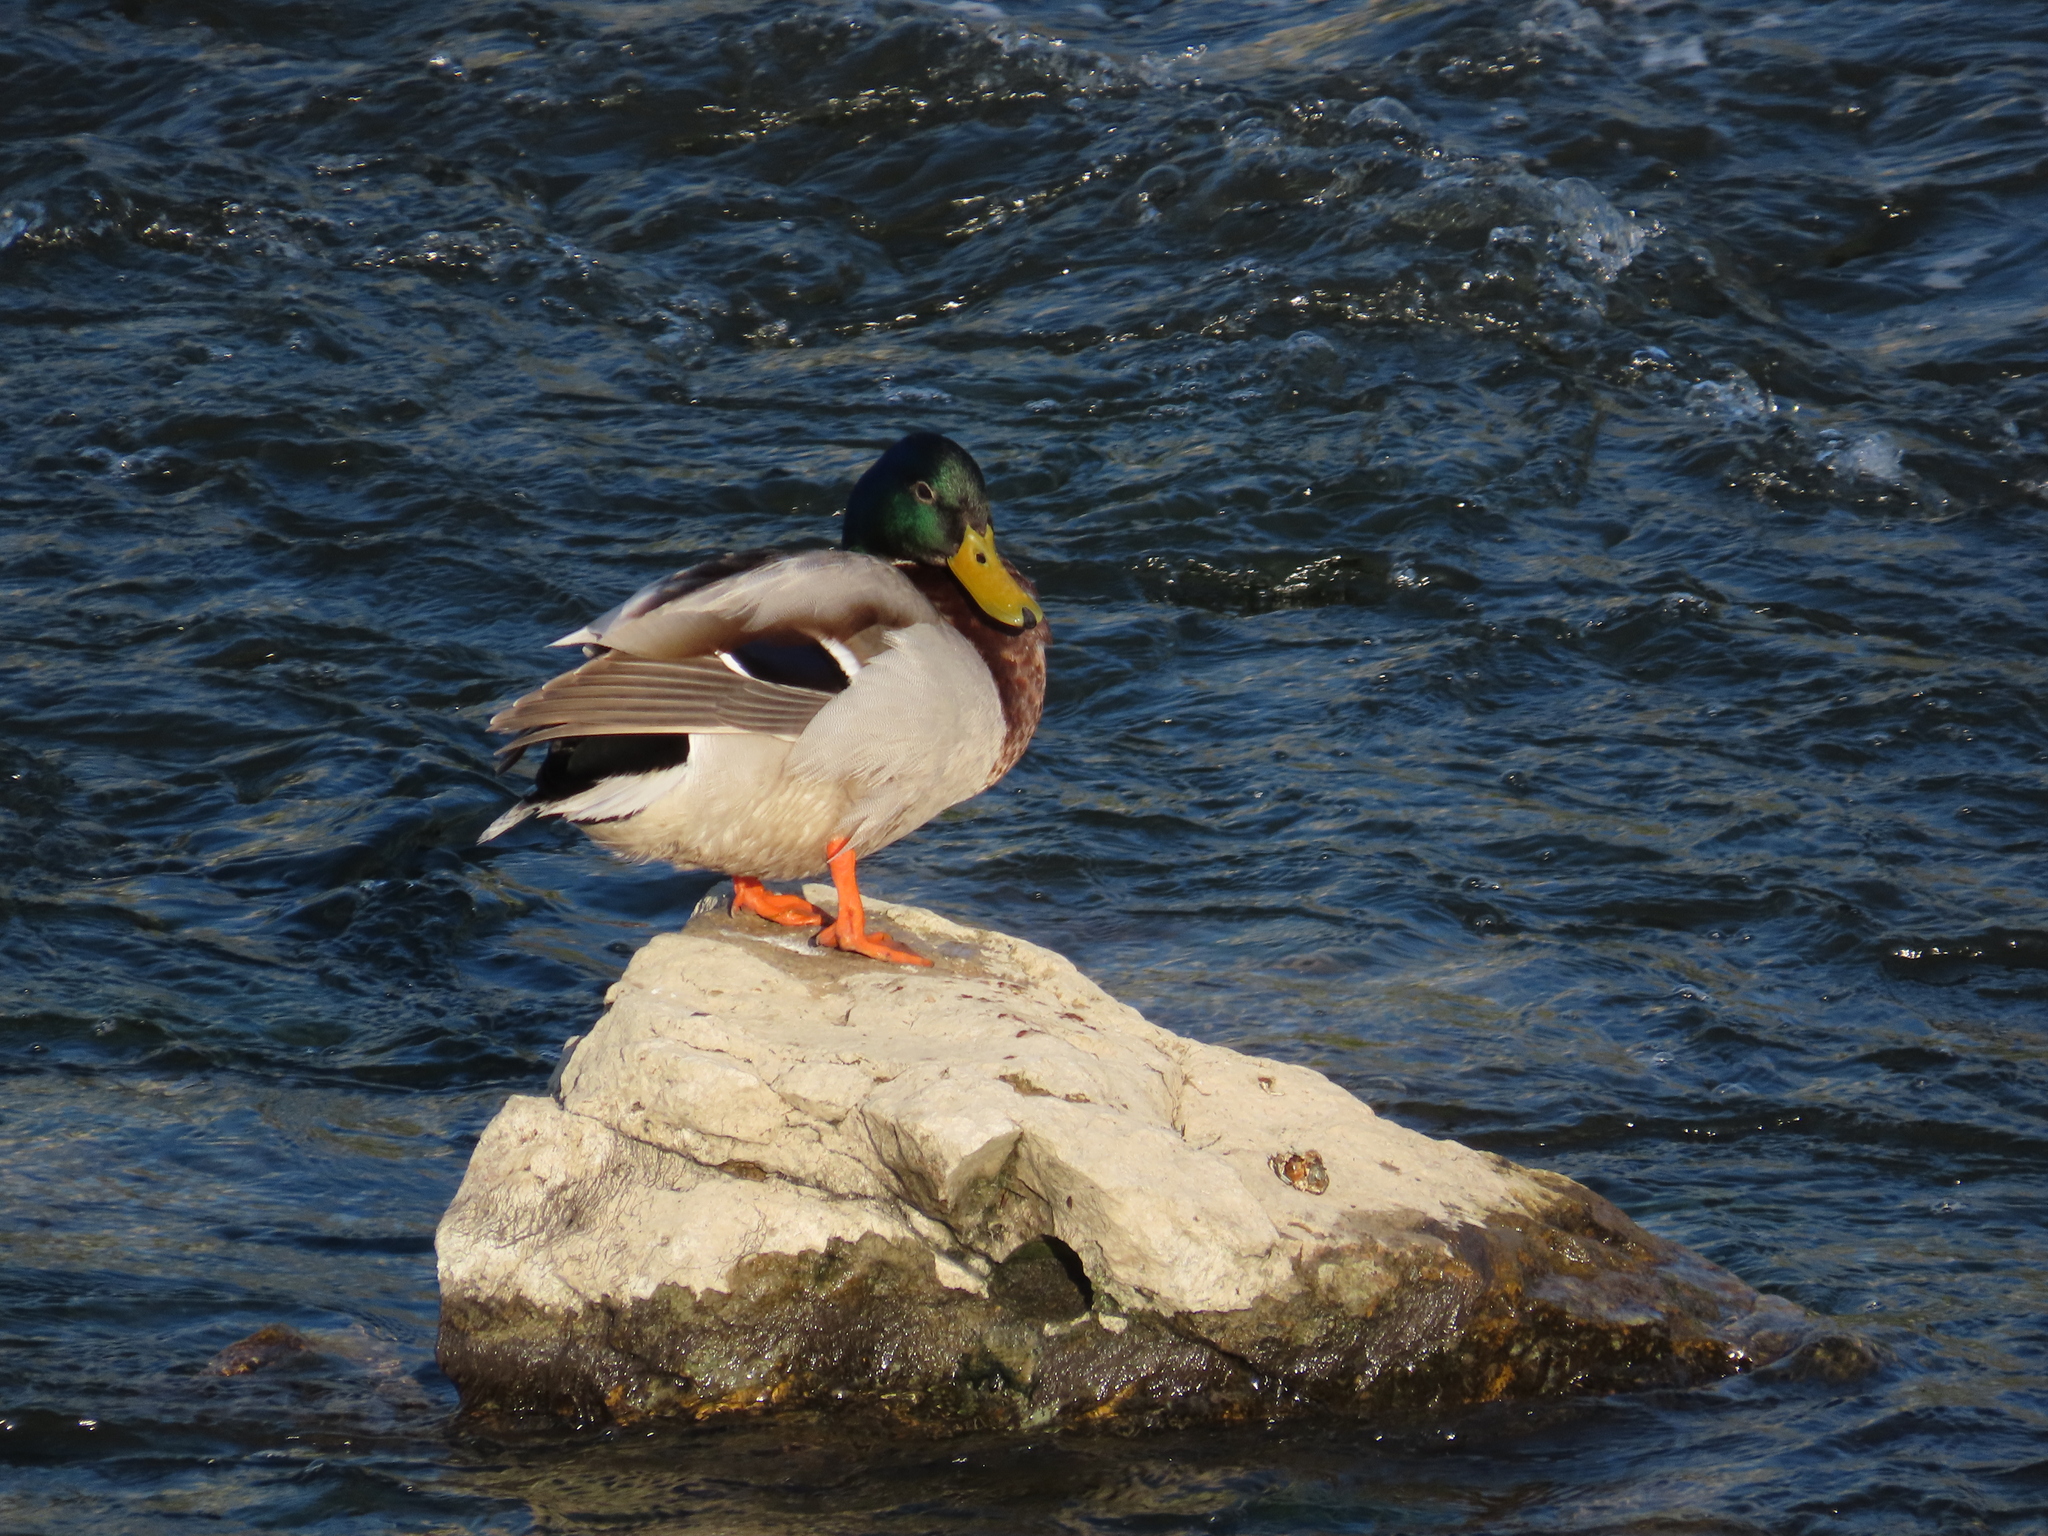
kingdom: Animalia
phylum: Chordata
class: Aves
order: Anseriformes
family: Anatidae
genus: Anas
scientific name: Anas platyrhynchos
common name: Mallard
